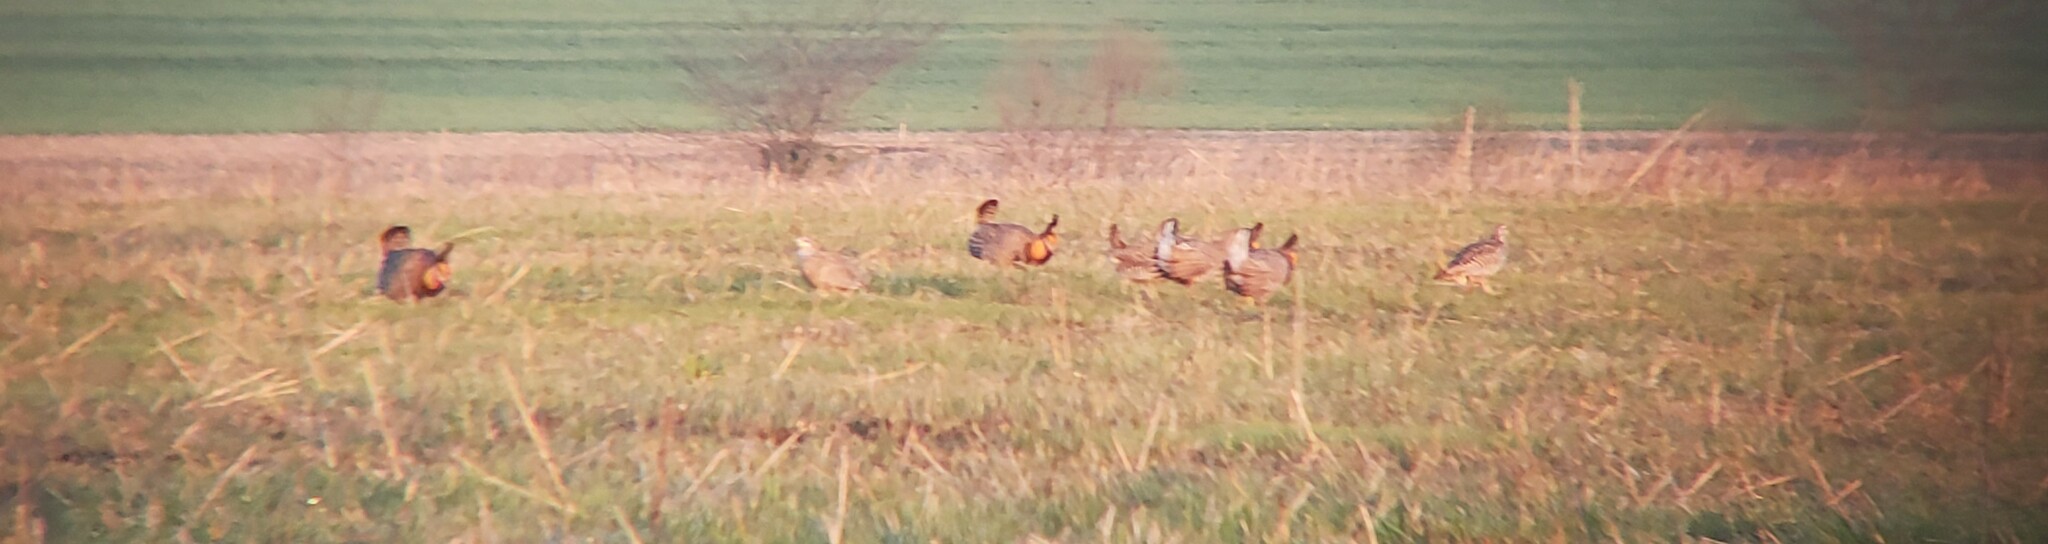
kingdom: Animalia
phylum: Chordata
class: Aves
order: Galliformes
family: Phasianidae
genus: Tympanuchus
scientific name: Tympanuchus cupido
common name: Greater prairie chicken
